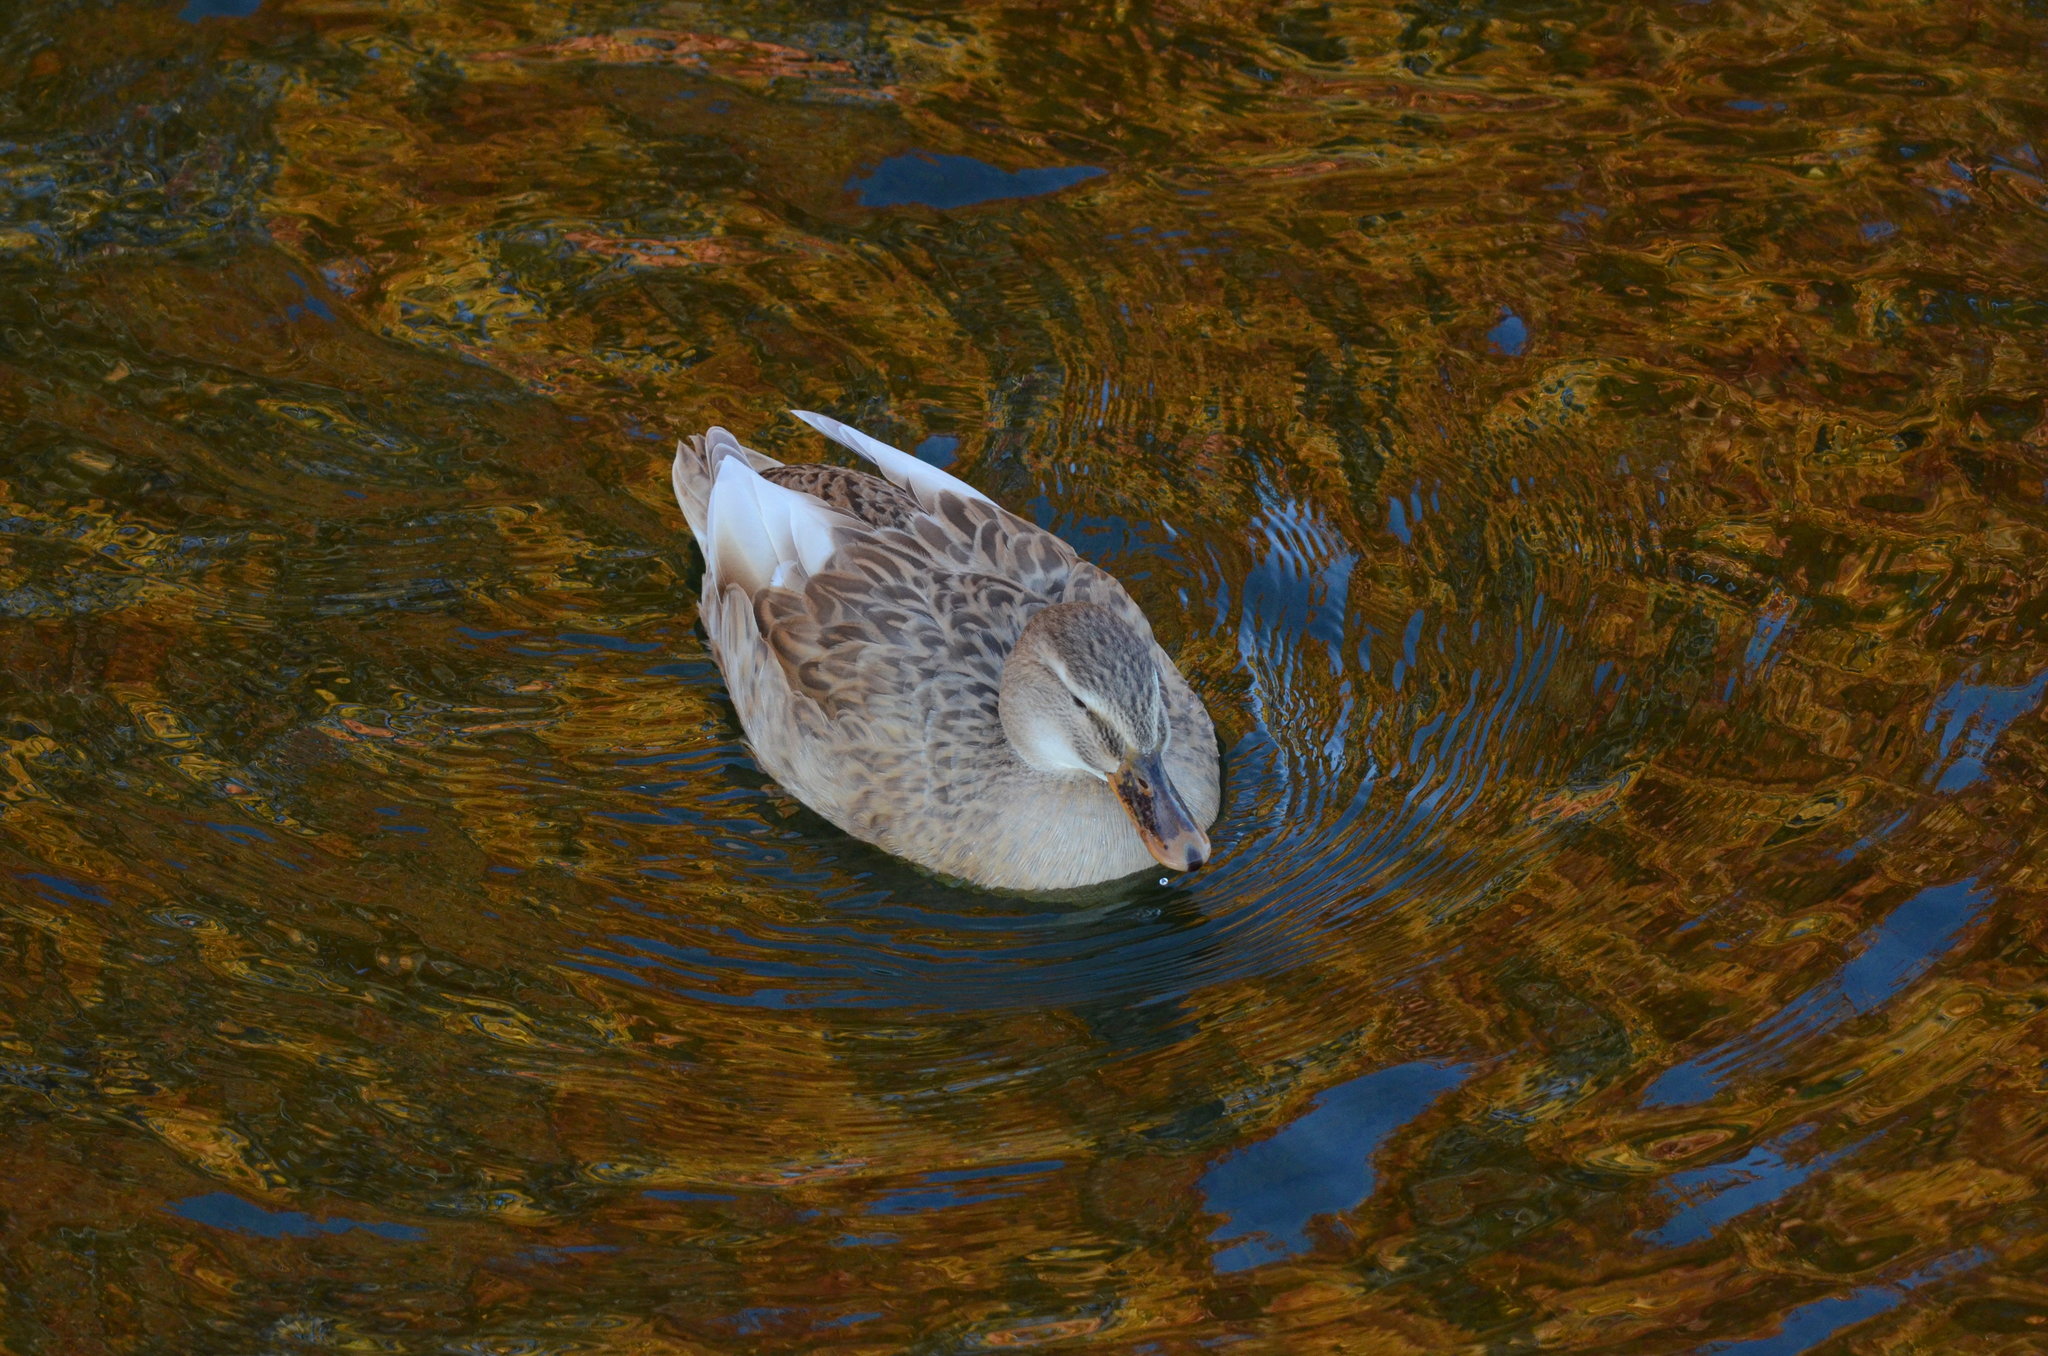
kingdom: Animalia
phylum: Chordata
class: Aves
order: Anseriformes
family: Anatidae
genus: Anas
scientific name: Anas platyrhynchos
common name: Mallard
